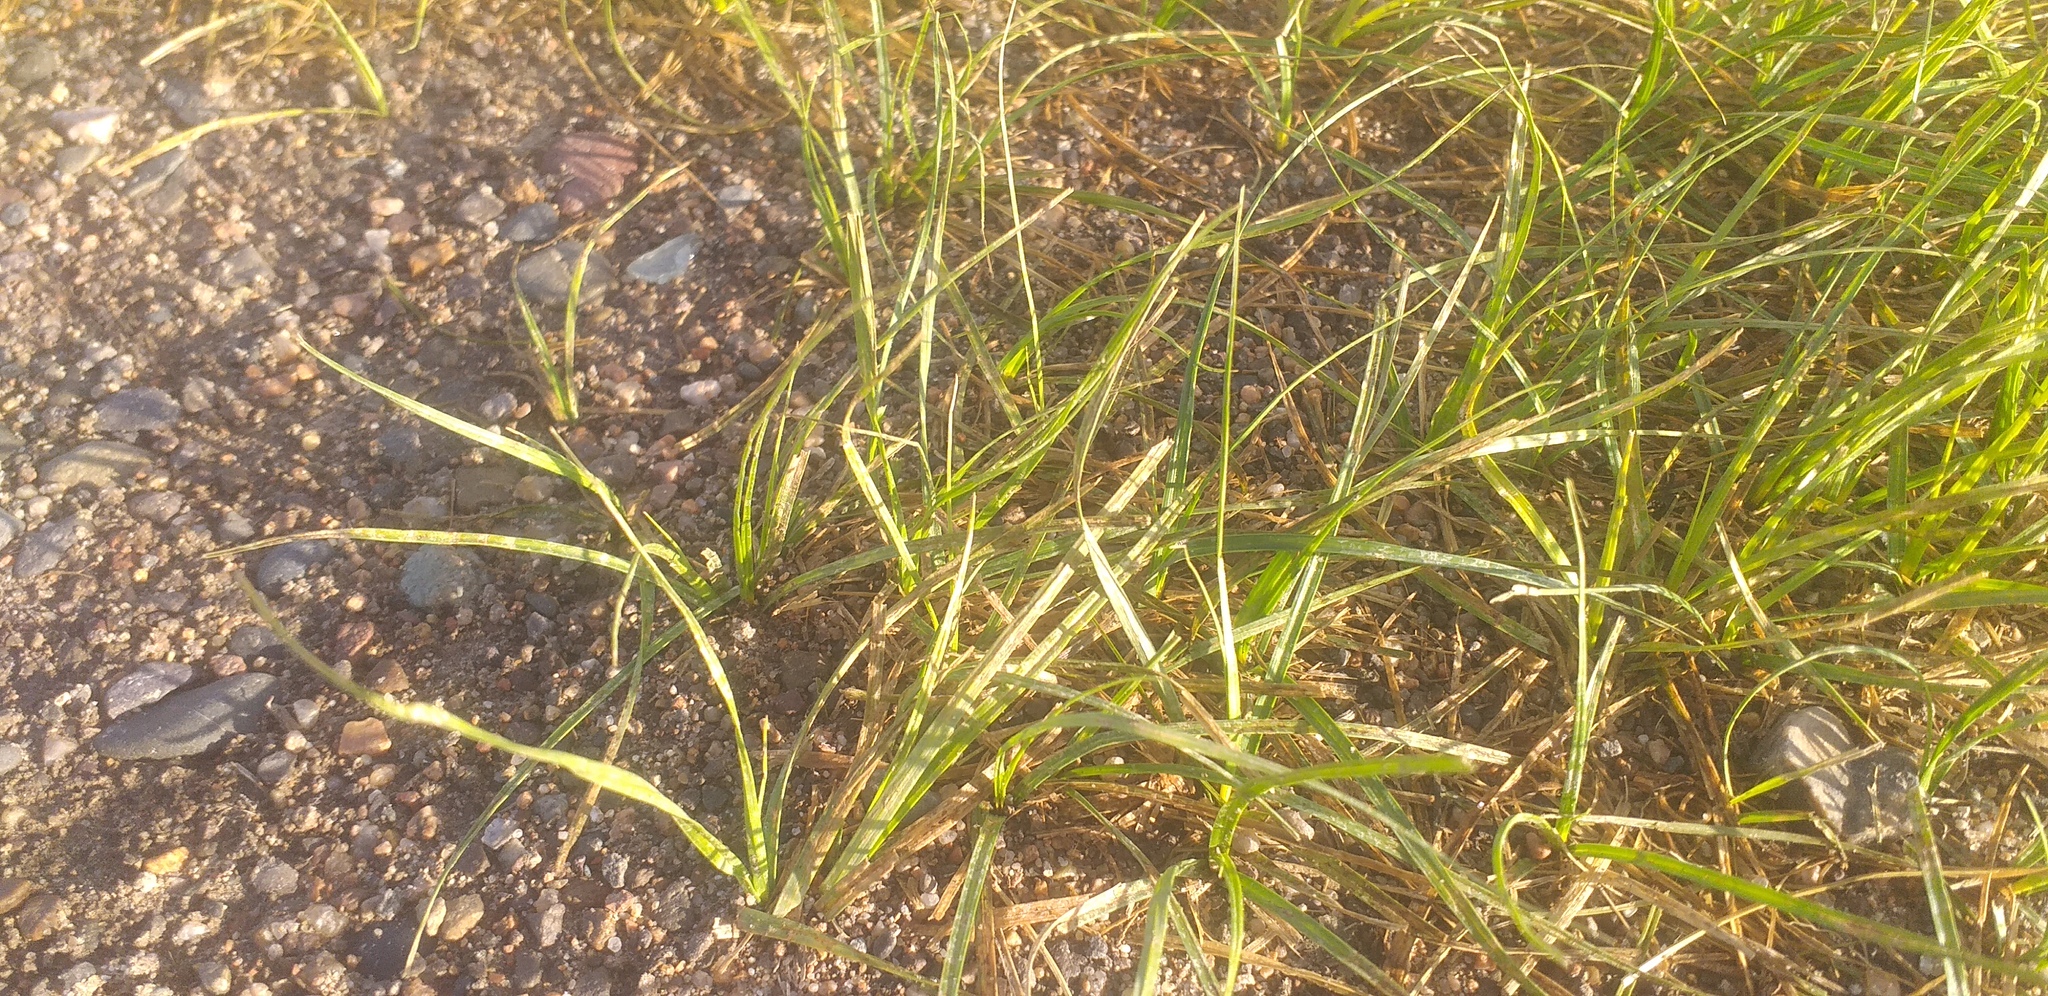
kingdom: Plantae
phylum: Tracheophyta
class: Liliopsida
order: Poales
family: Cyperaceae
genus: Carex
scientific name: Carex duriuscula
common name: Involute-leaved sedge
